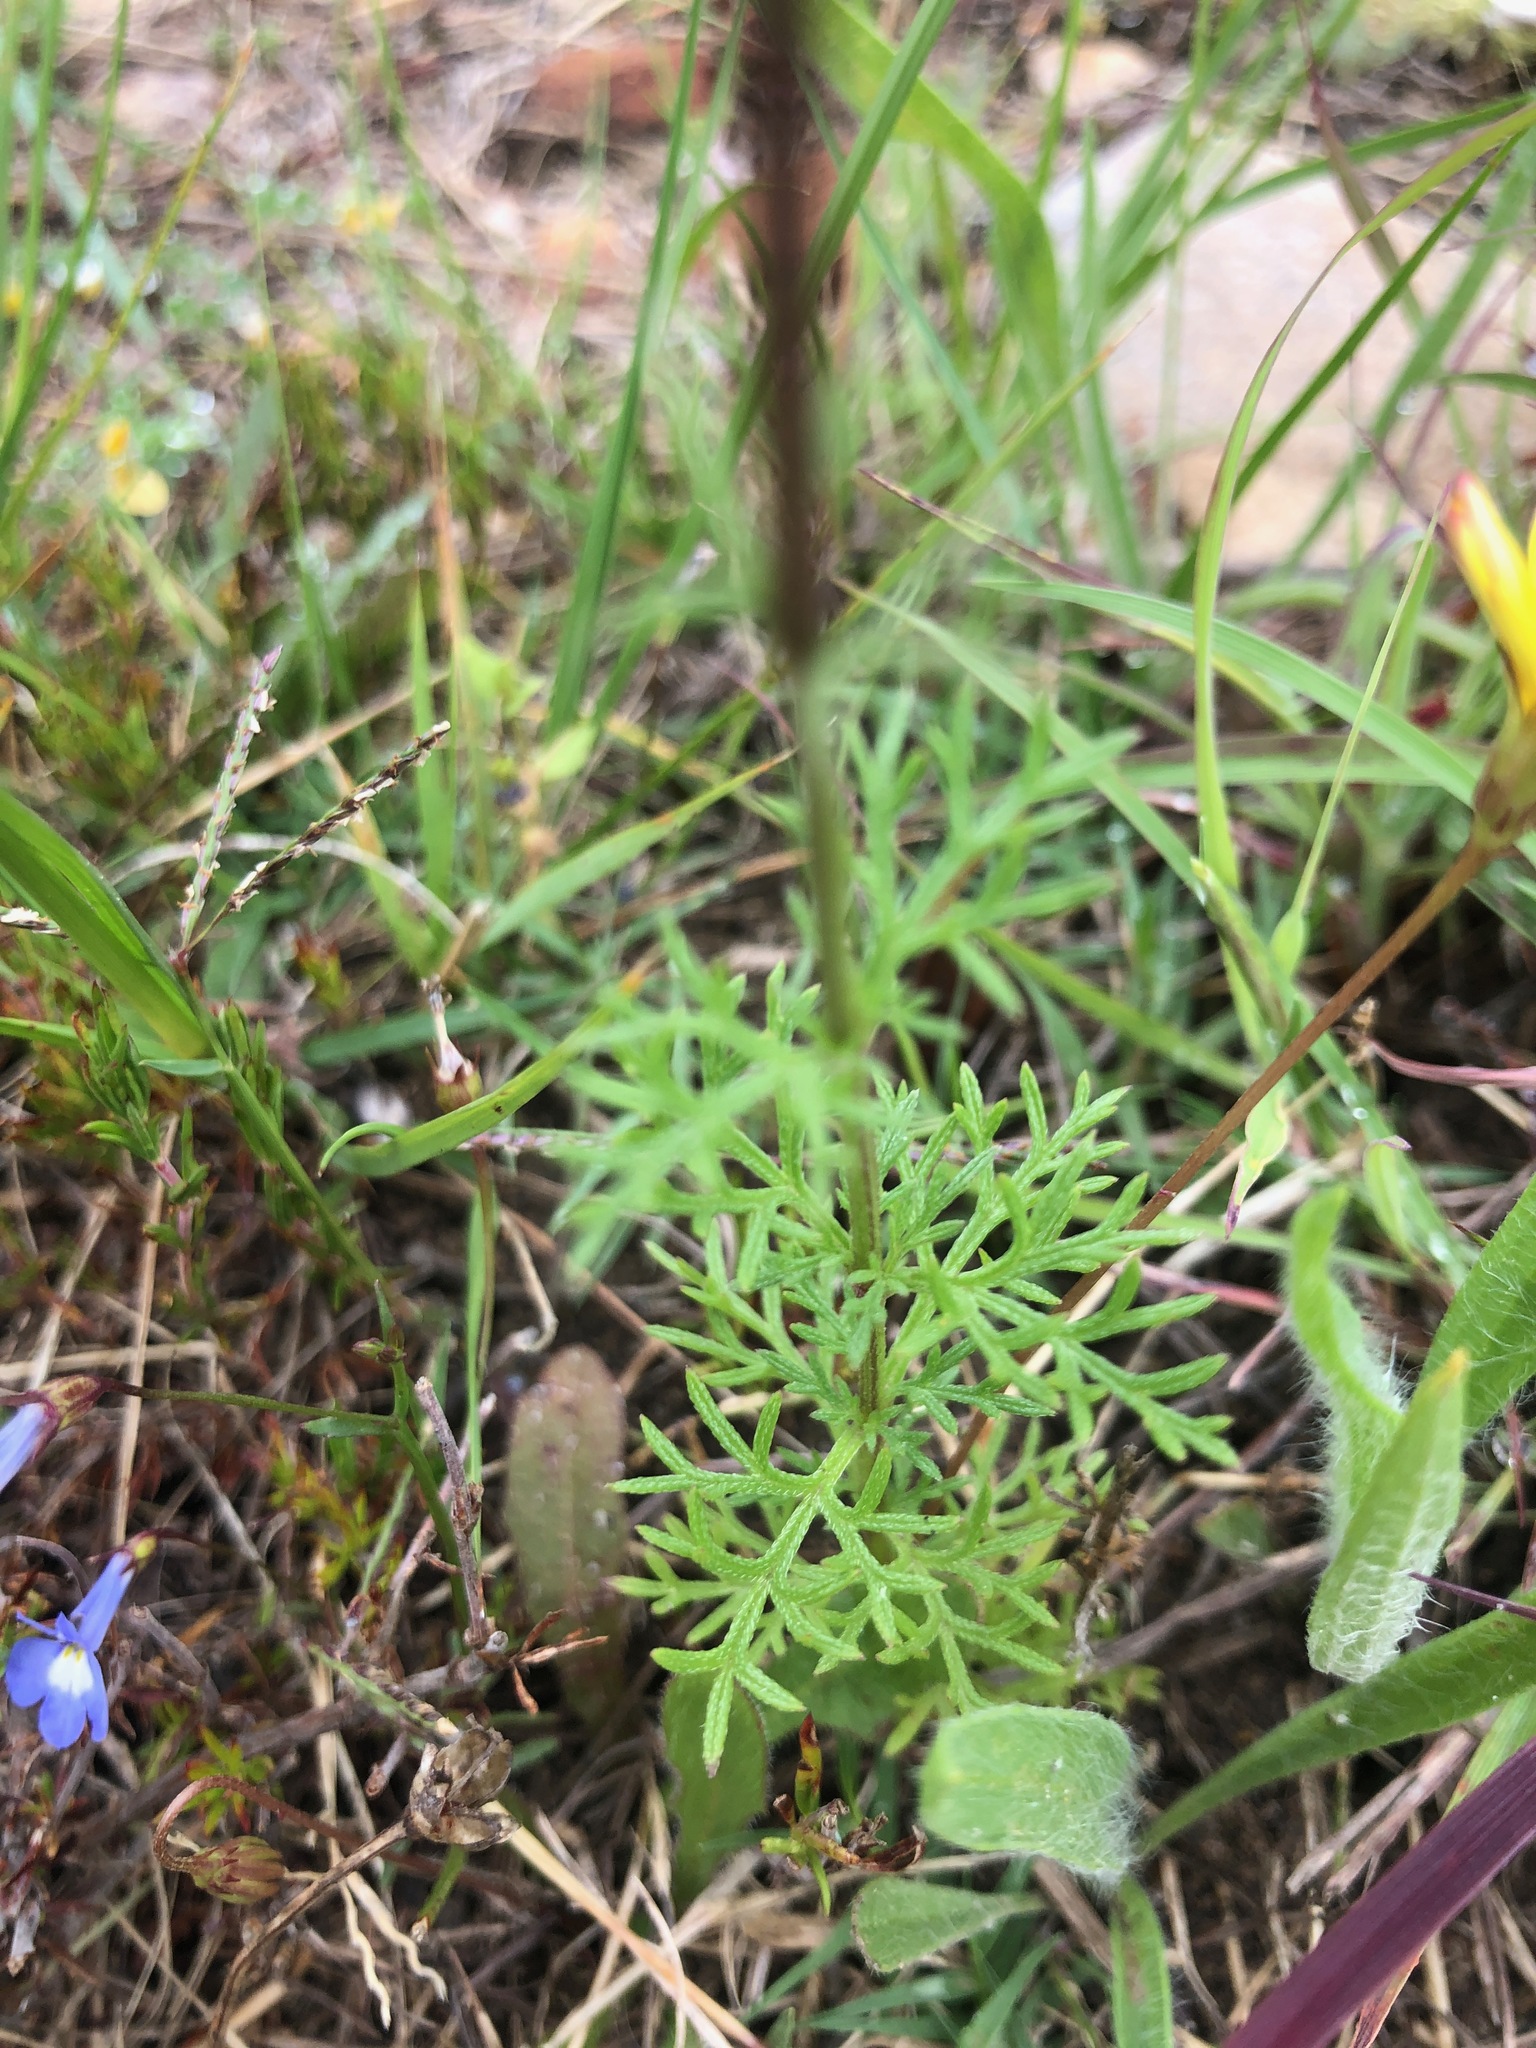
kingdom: Plantae
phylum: Tracheophyta
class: Magnoliopsida
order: Lamiales
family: Verbenaceae
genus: Verbena
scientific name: Verbena aristigera
